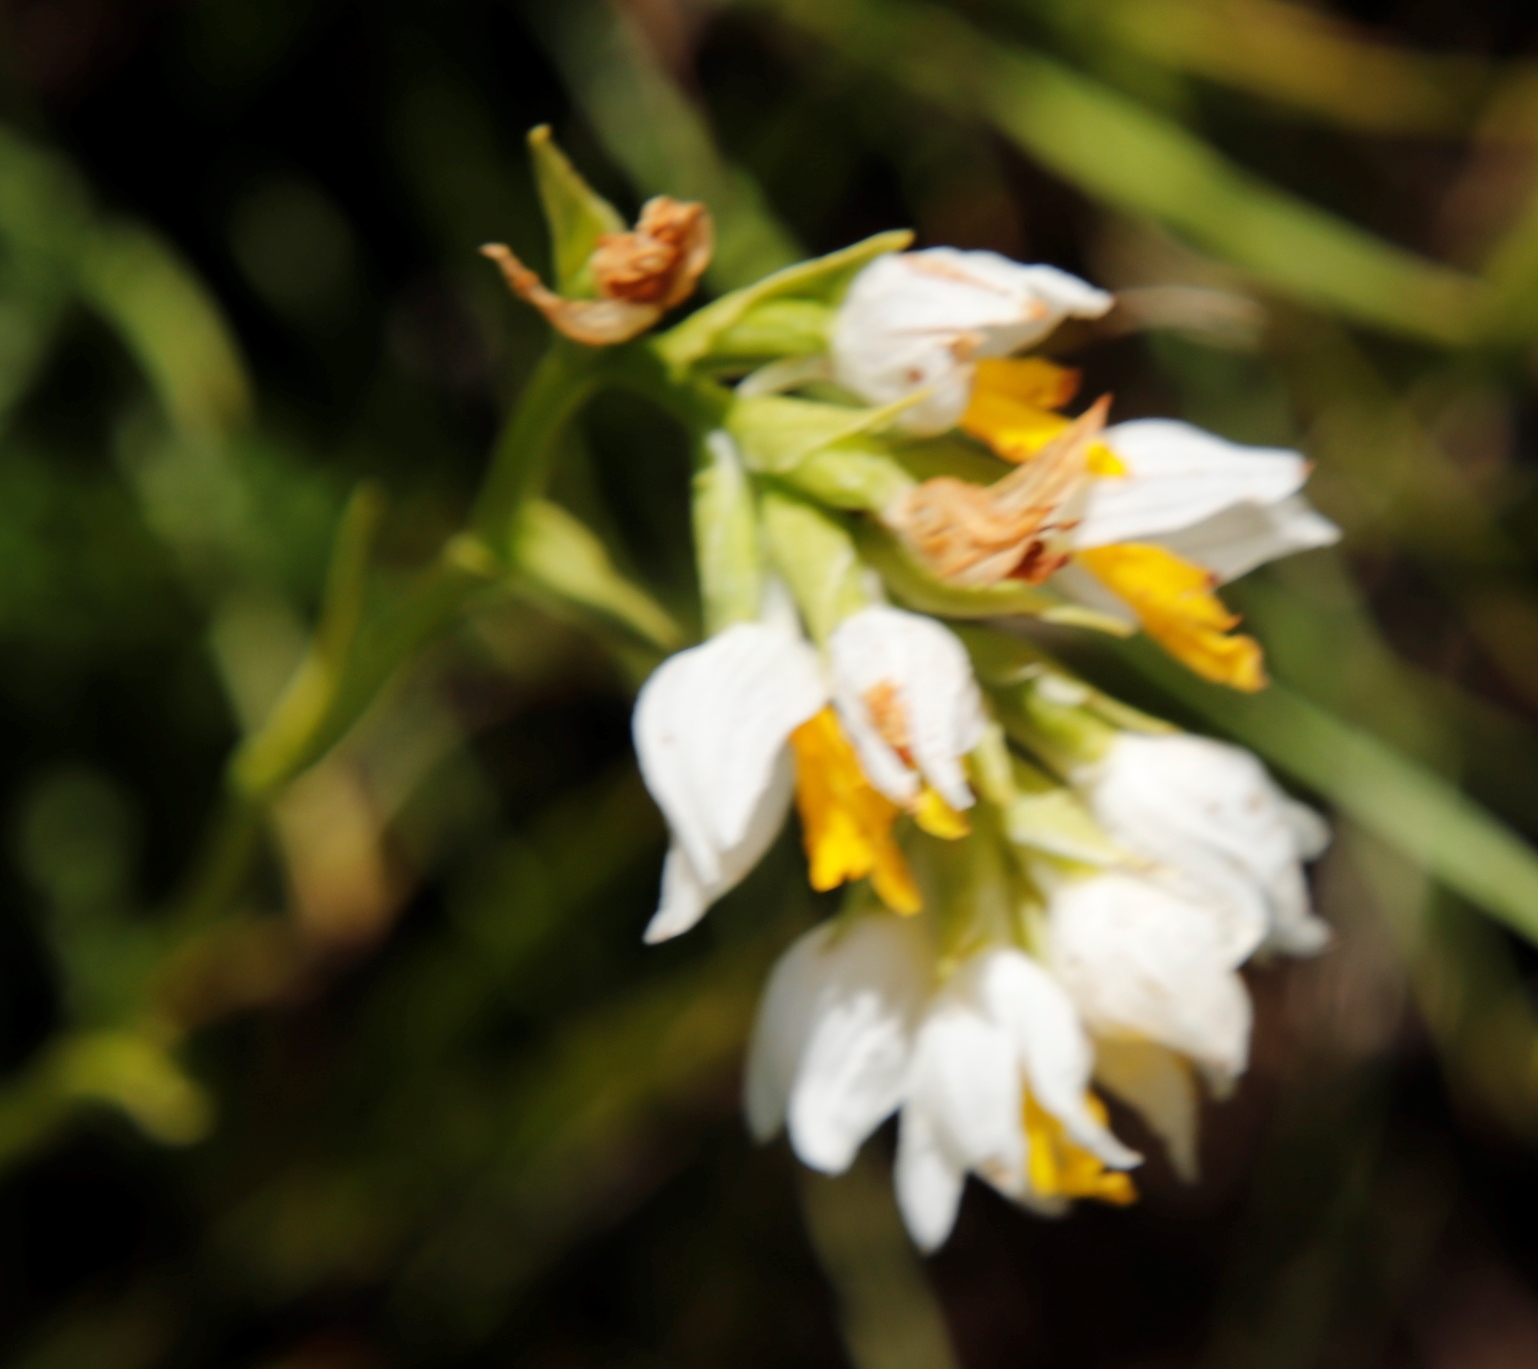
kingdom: Plantae
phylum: Tracheophyta
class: Liliopsida
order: Asparagales
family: Orchidaceae
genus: Schizochilus
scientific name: Schizochilus flexuosus
